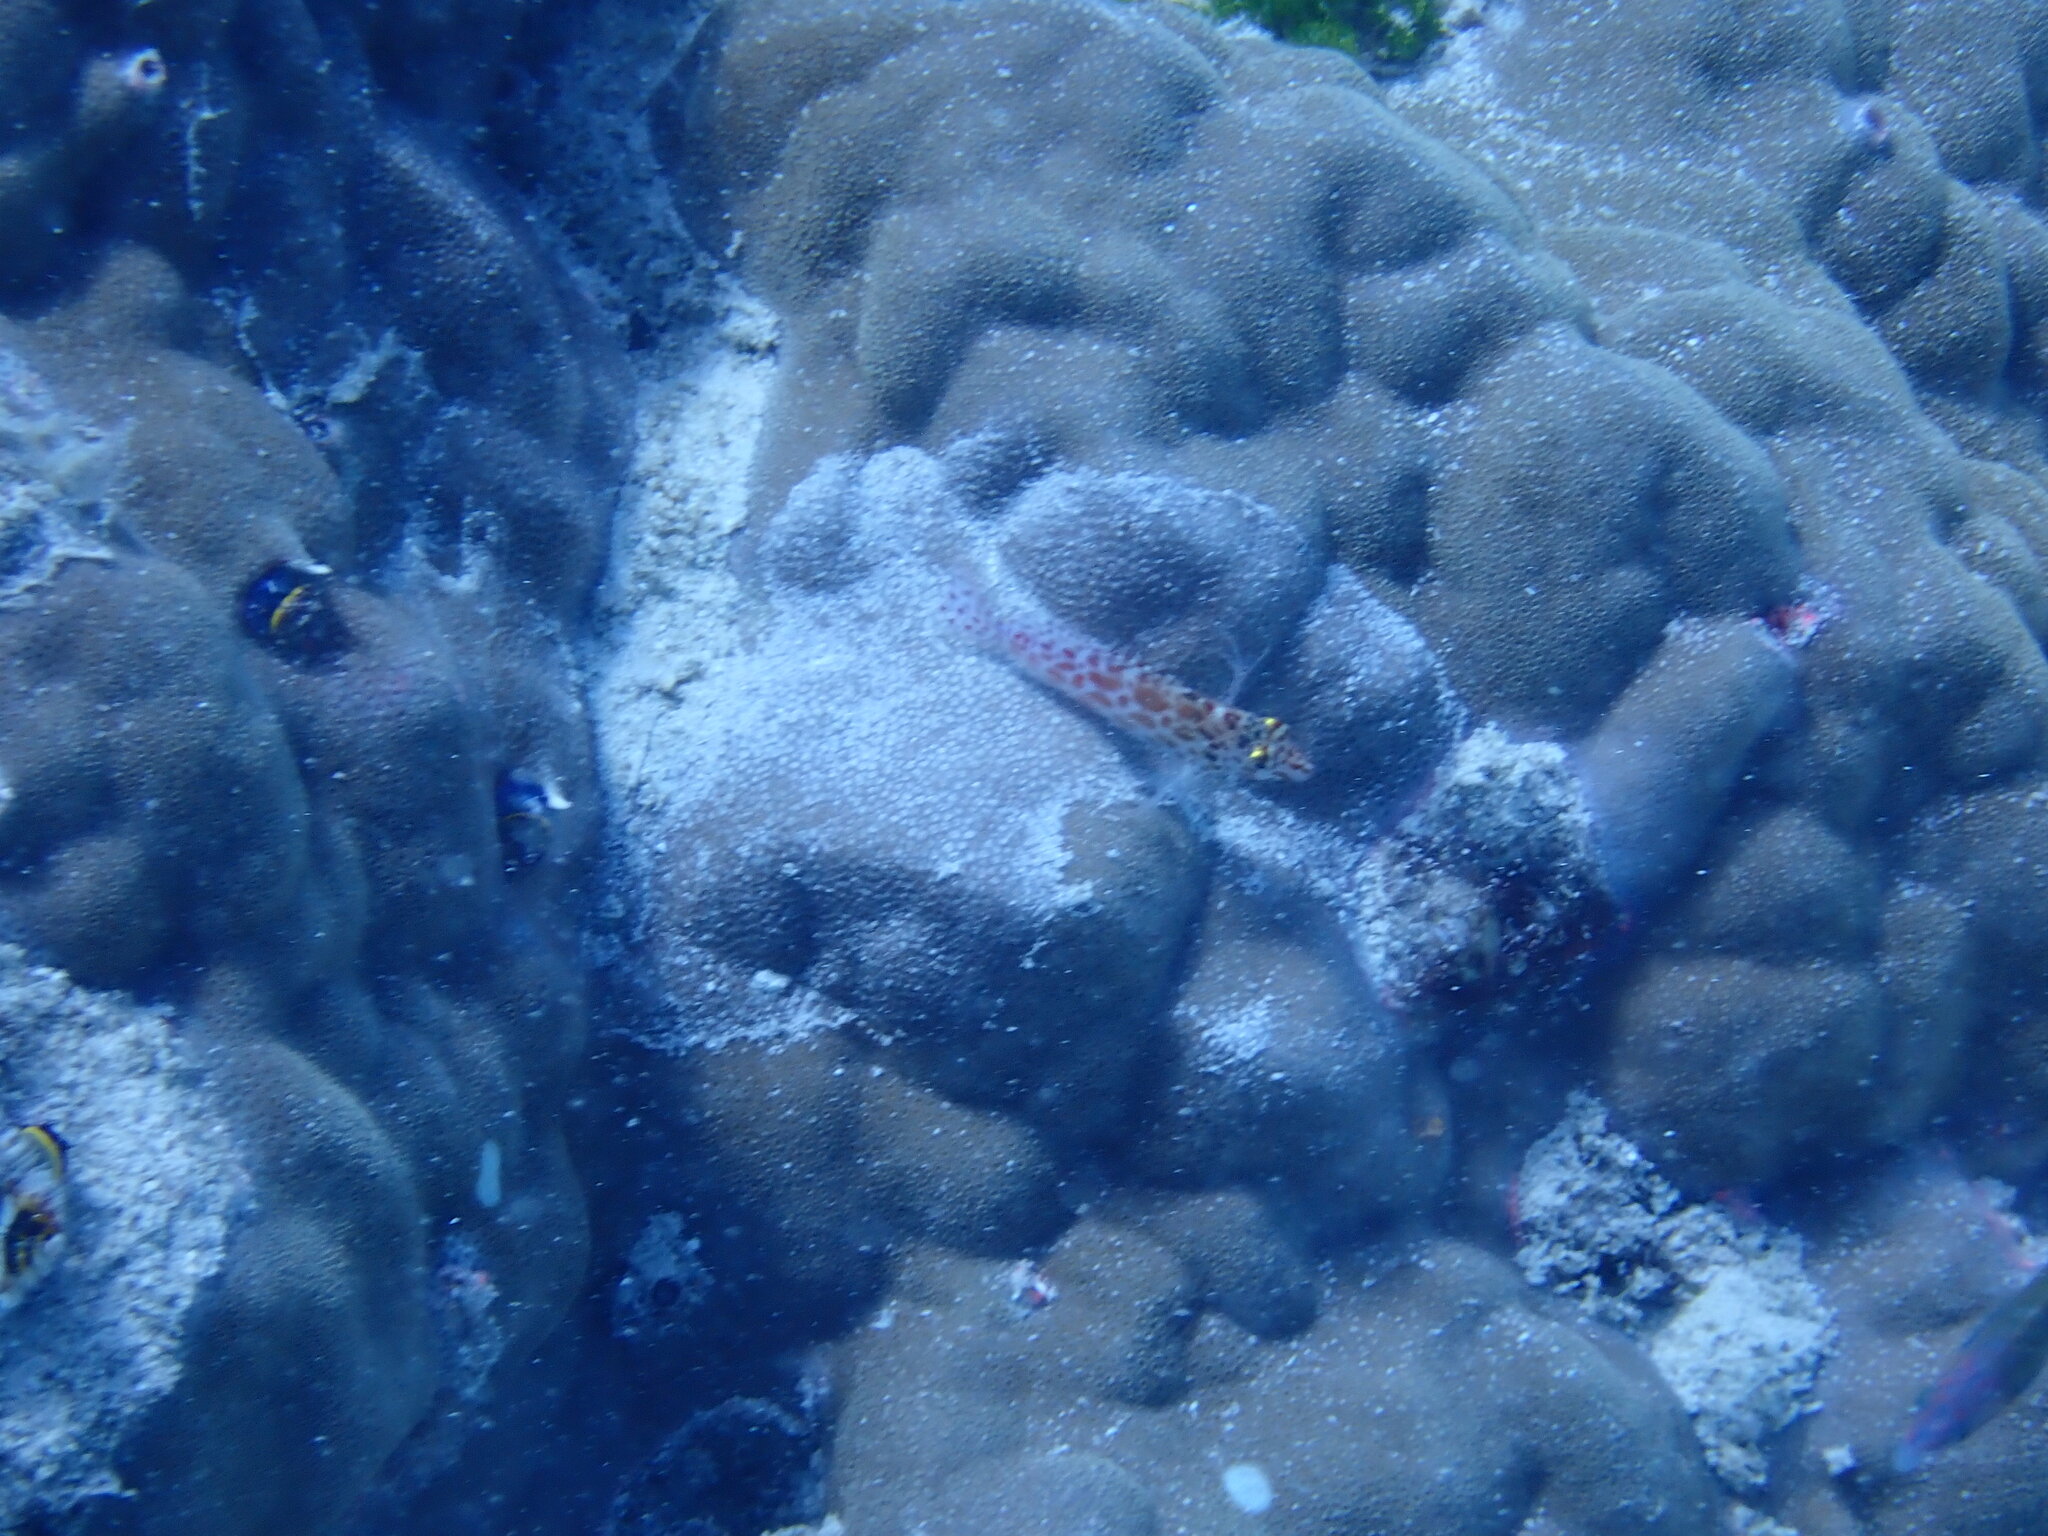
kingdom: Animalia
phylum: Chordata
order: Perciformes
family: Cirrhitidae
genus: Cirrhitichthys
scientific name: Cirrhitichthys oxycephalus
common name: Spotted hawkfish
